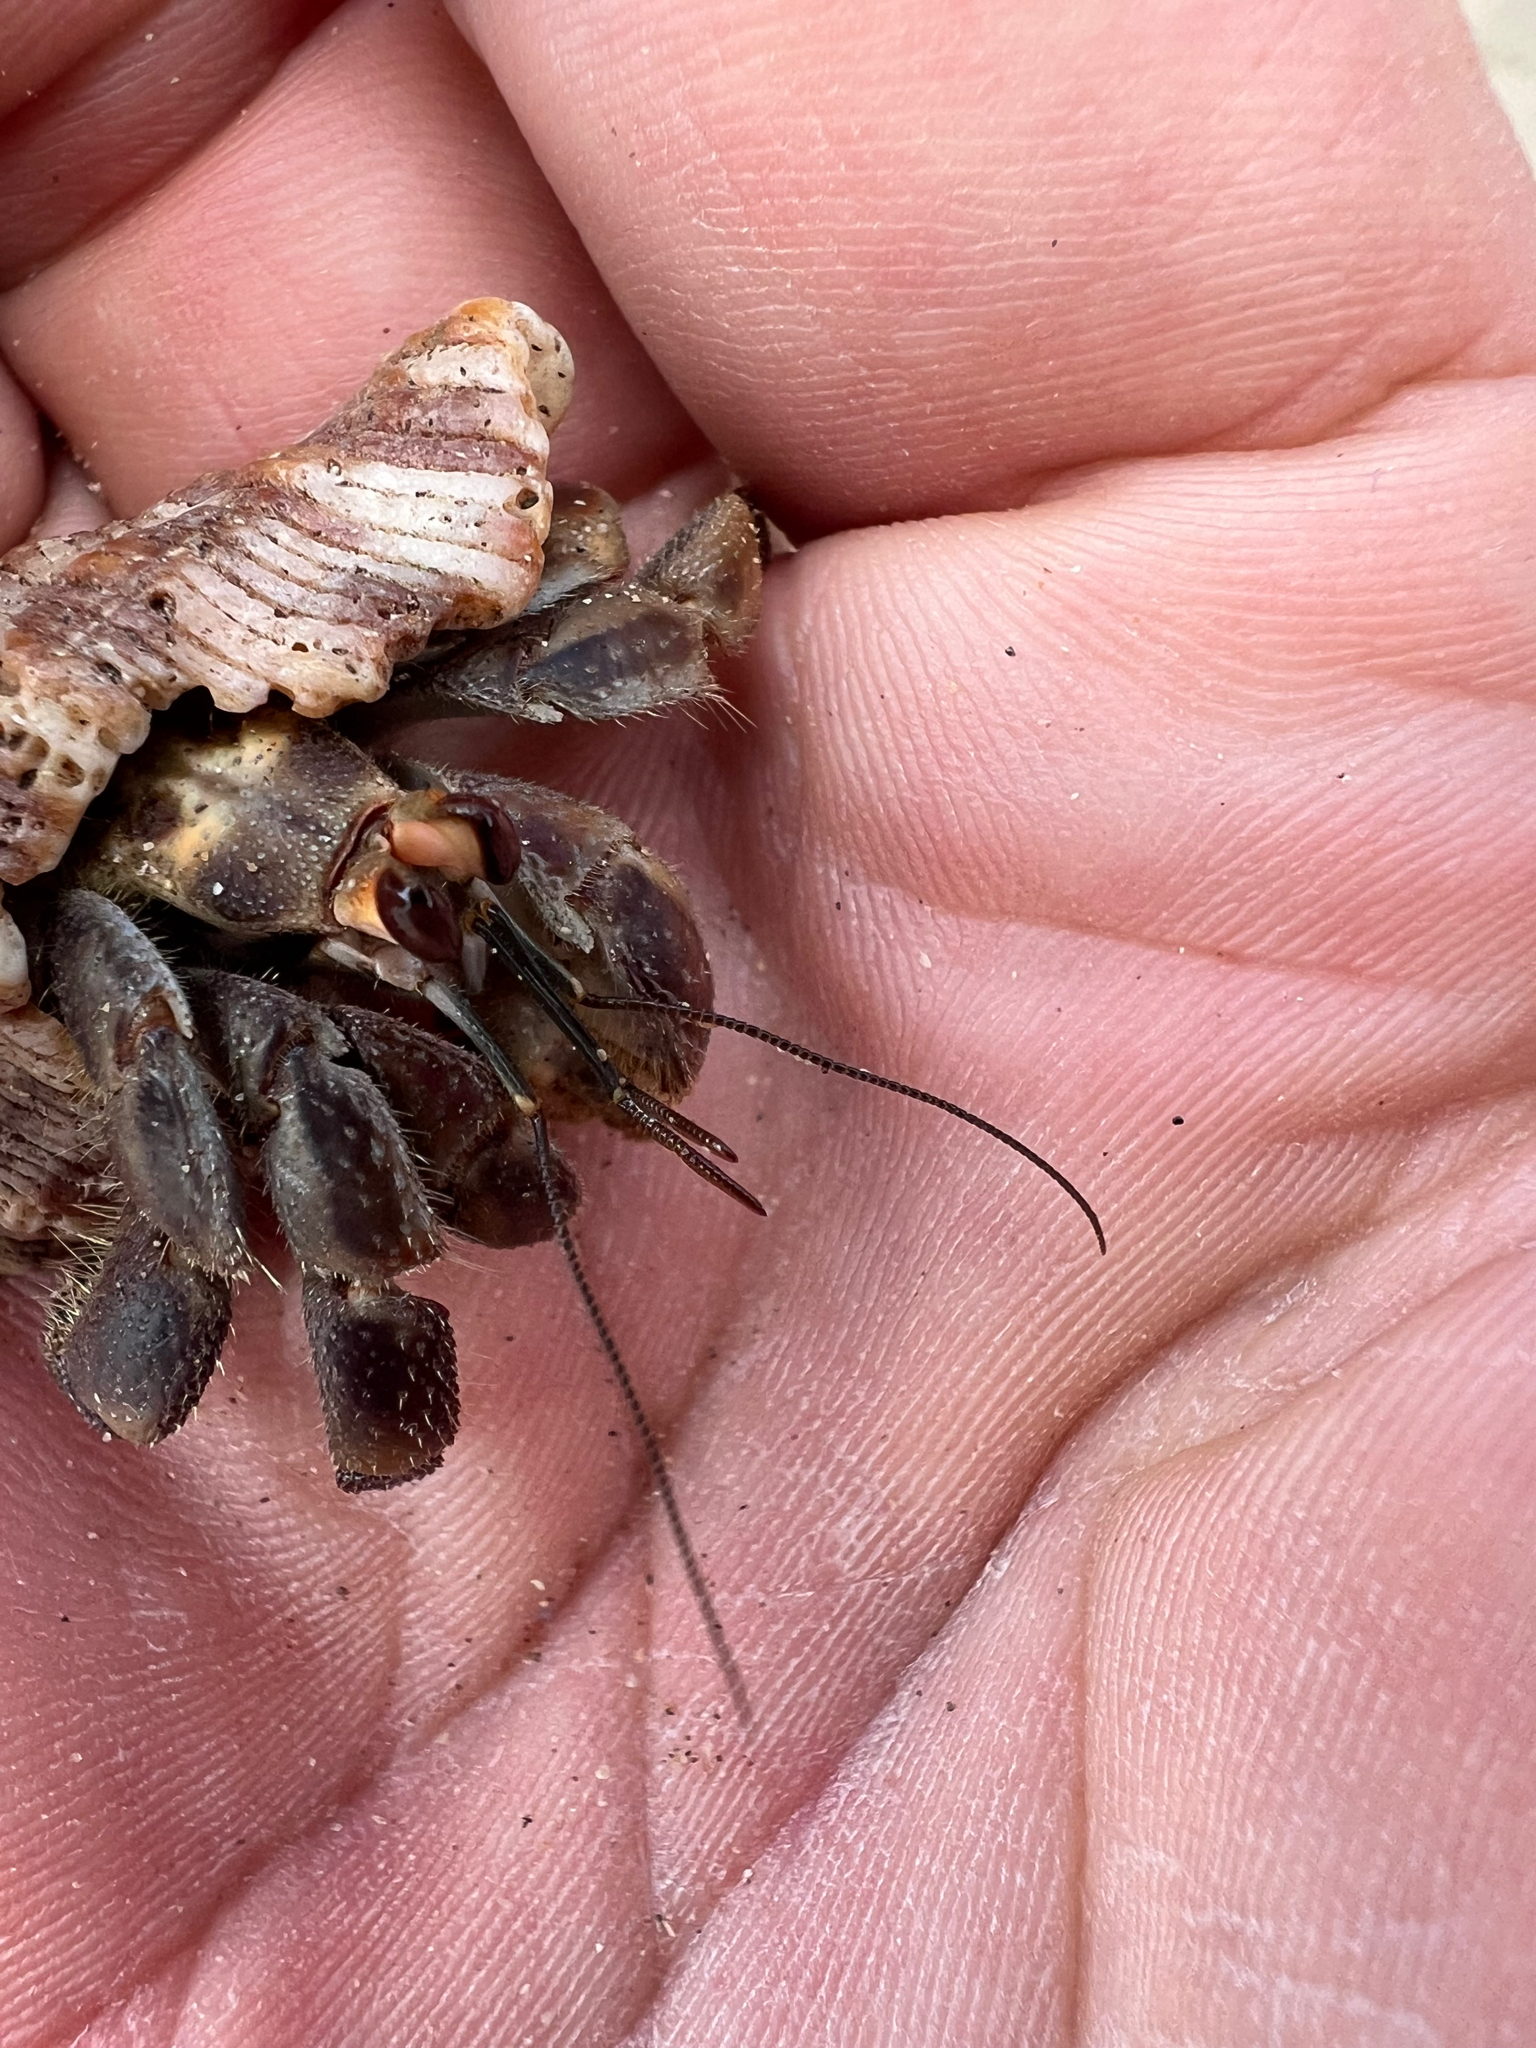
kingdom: Animalia
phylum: Arthropoda
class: Malacostraca
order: Decapoda
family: Coenobitidae
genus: Coenobita
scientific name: Coenobita compressus
